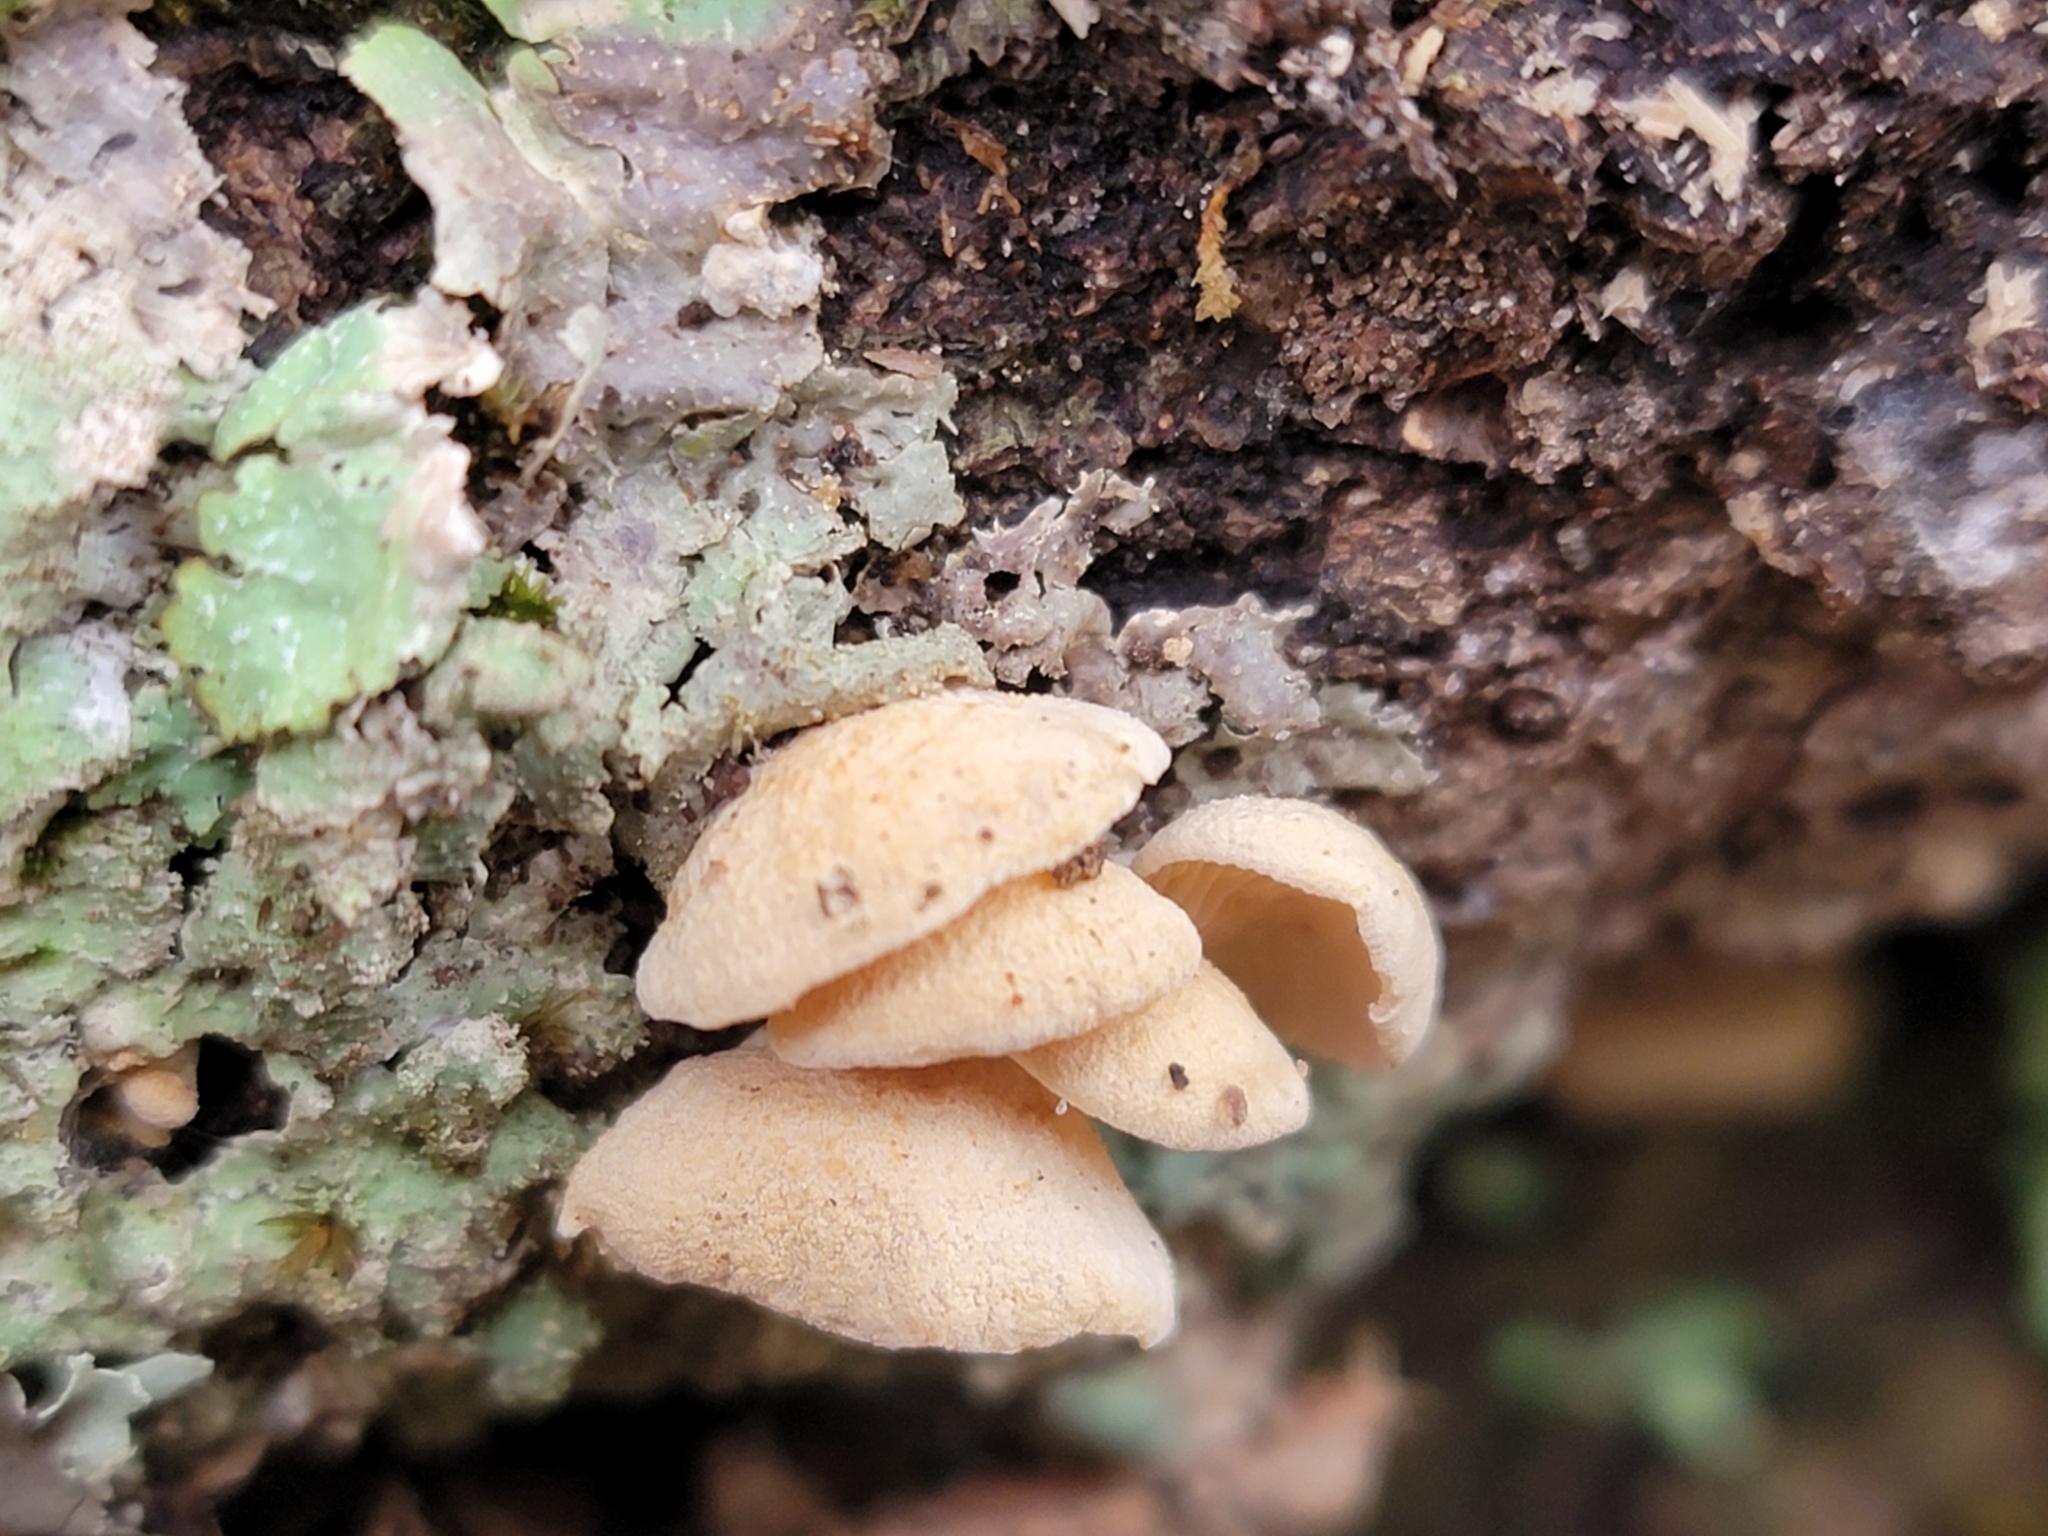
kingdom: Fungi
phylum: Basidiomycota
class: Agaricomycetes
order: Agaricales
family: Mycenaceae
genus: Panellus
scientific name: Panellus stipticus
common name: Bitter oysterling
